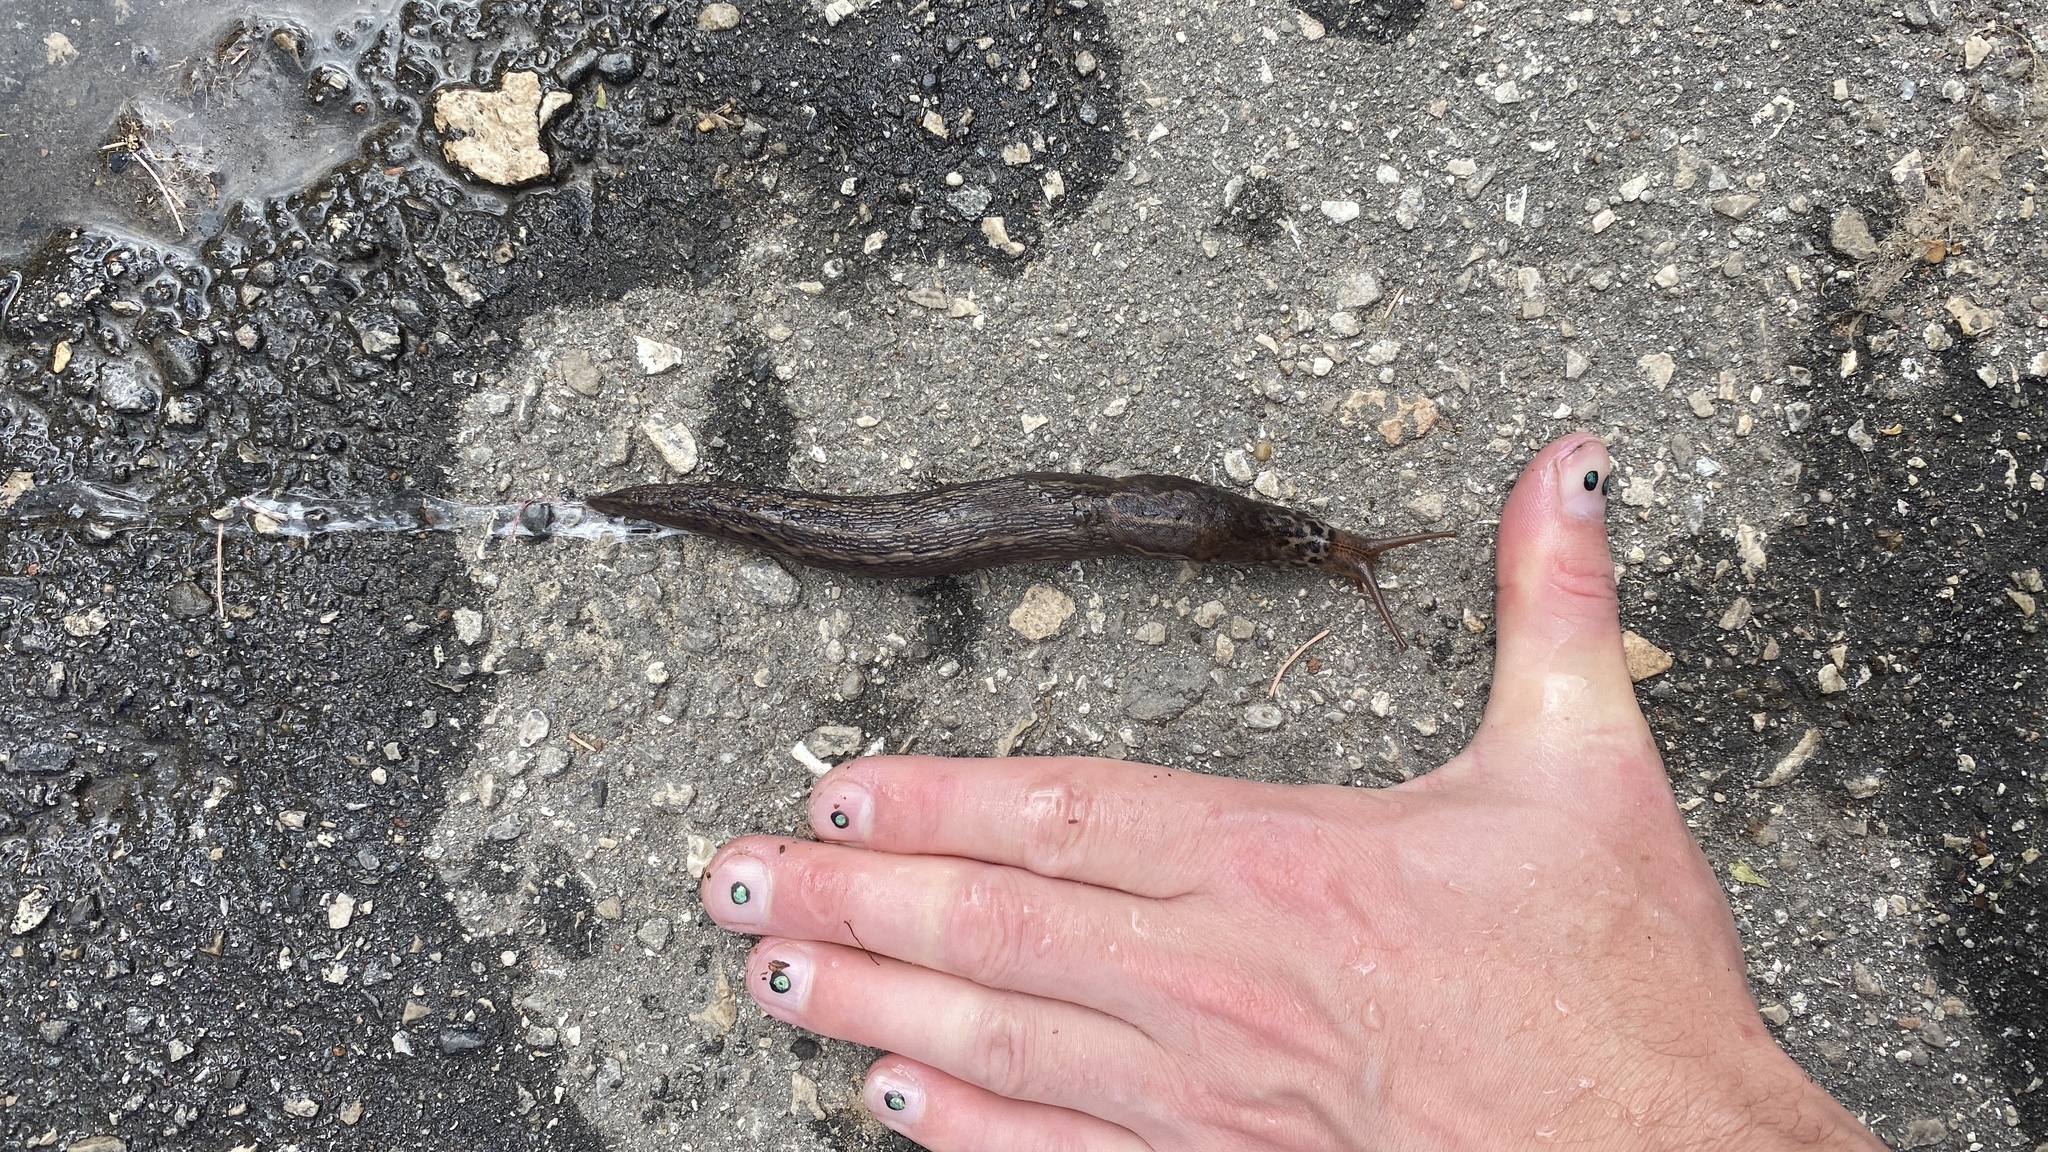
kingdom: Animalia
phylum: Mollusca
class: Gastropoda
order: Stylommatophora
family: Limacidae
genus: Limax
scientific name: Limax maximus
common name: Great grey slug
